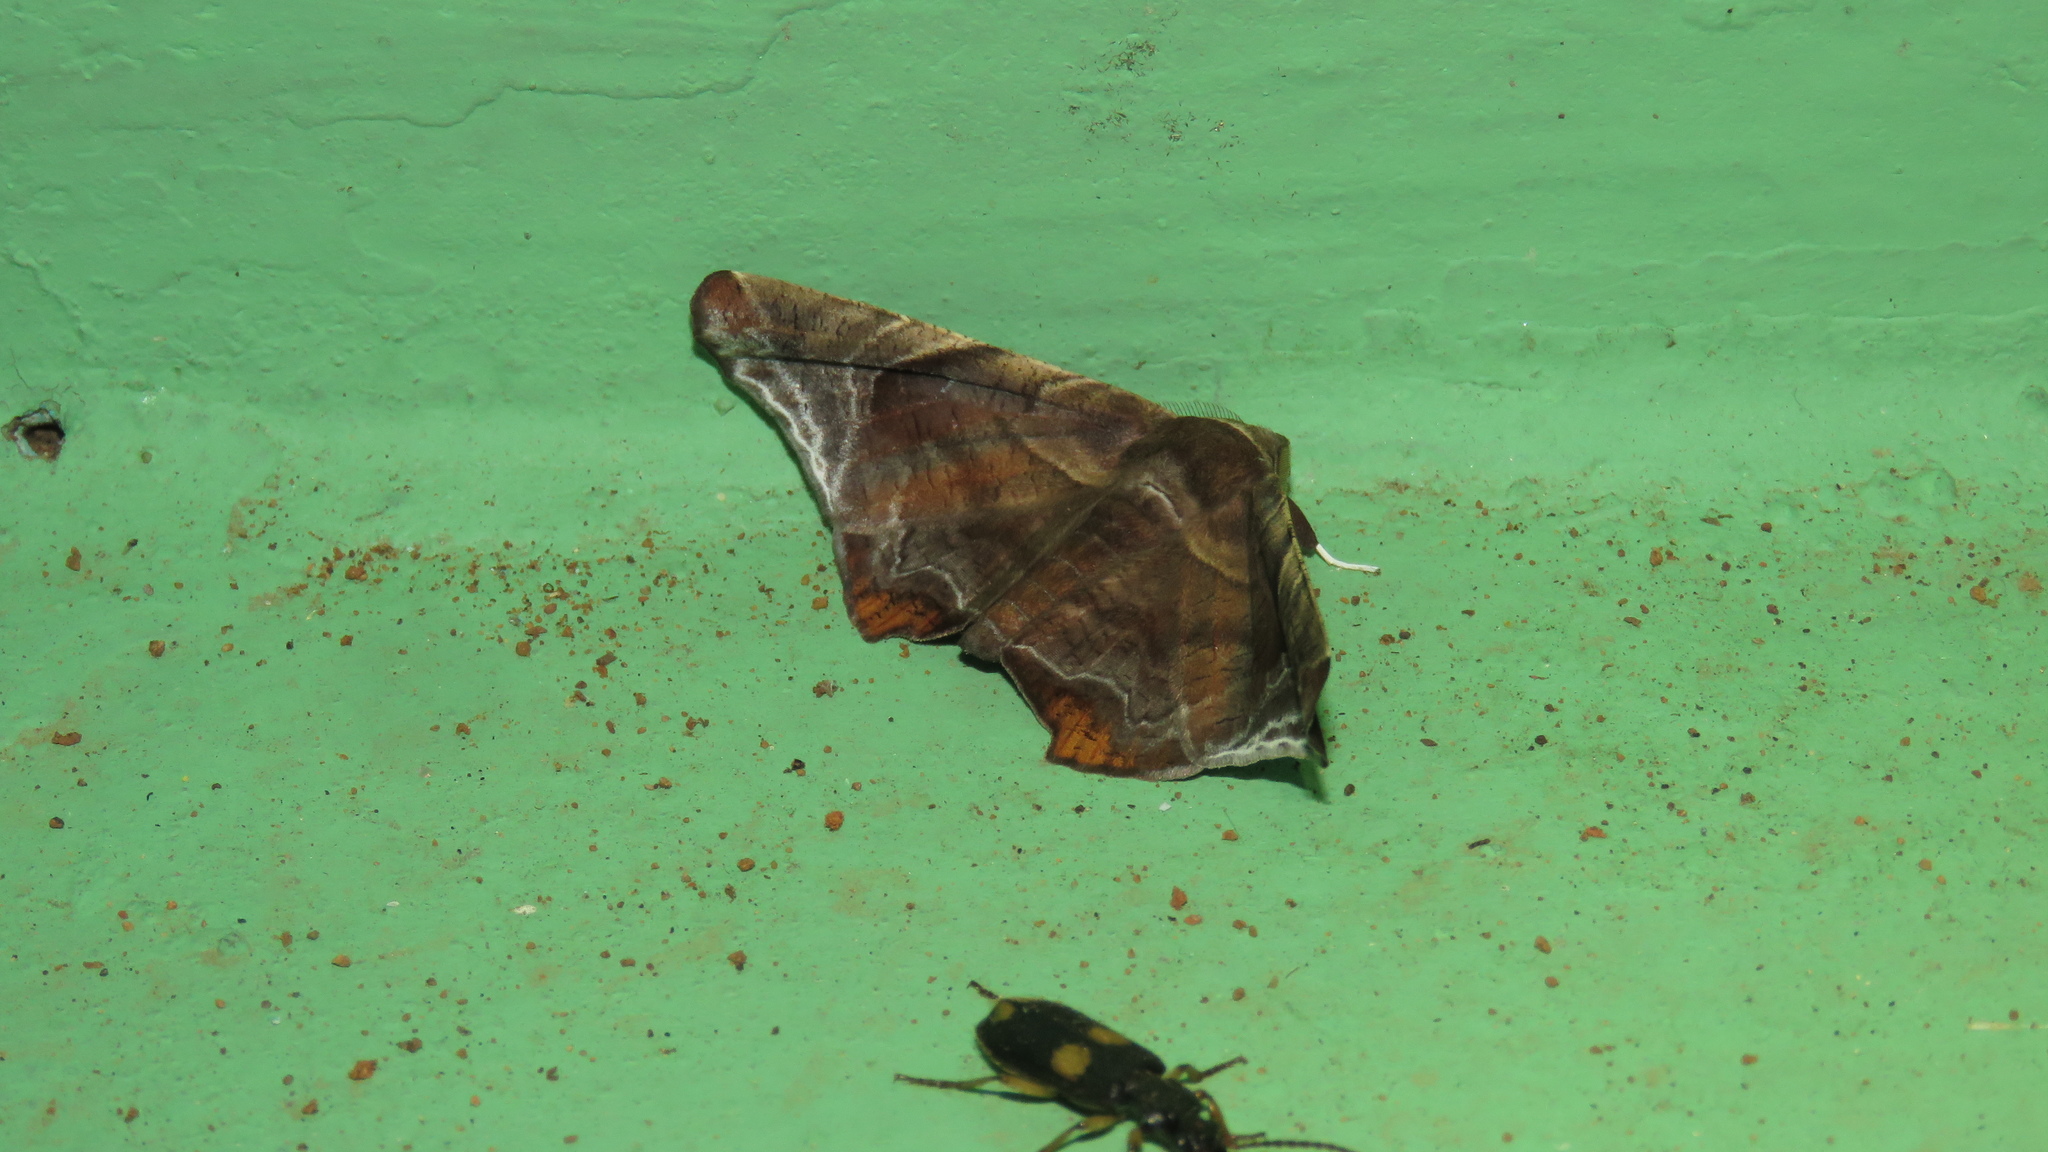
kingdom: Animalia
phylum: Arthropoda
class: Insecta
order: Lepidoptera
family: Erebidae
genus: Episparis
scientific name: Episparis tortuosalis
